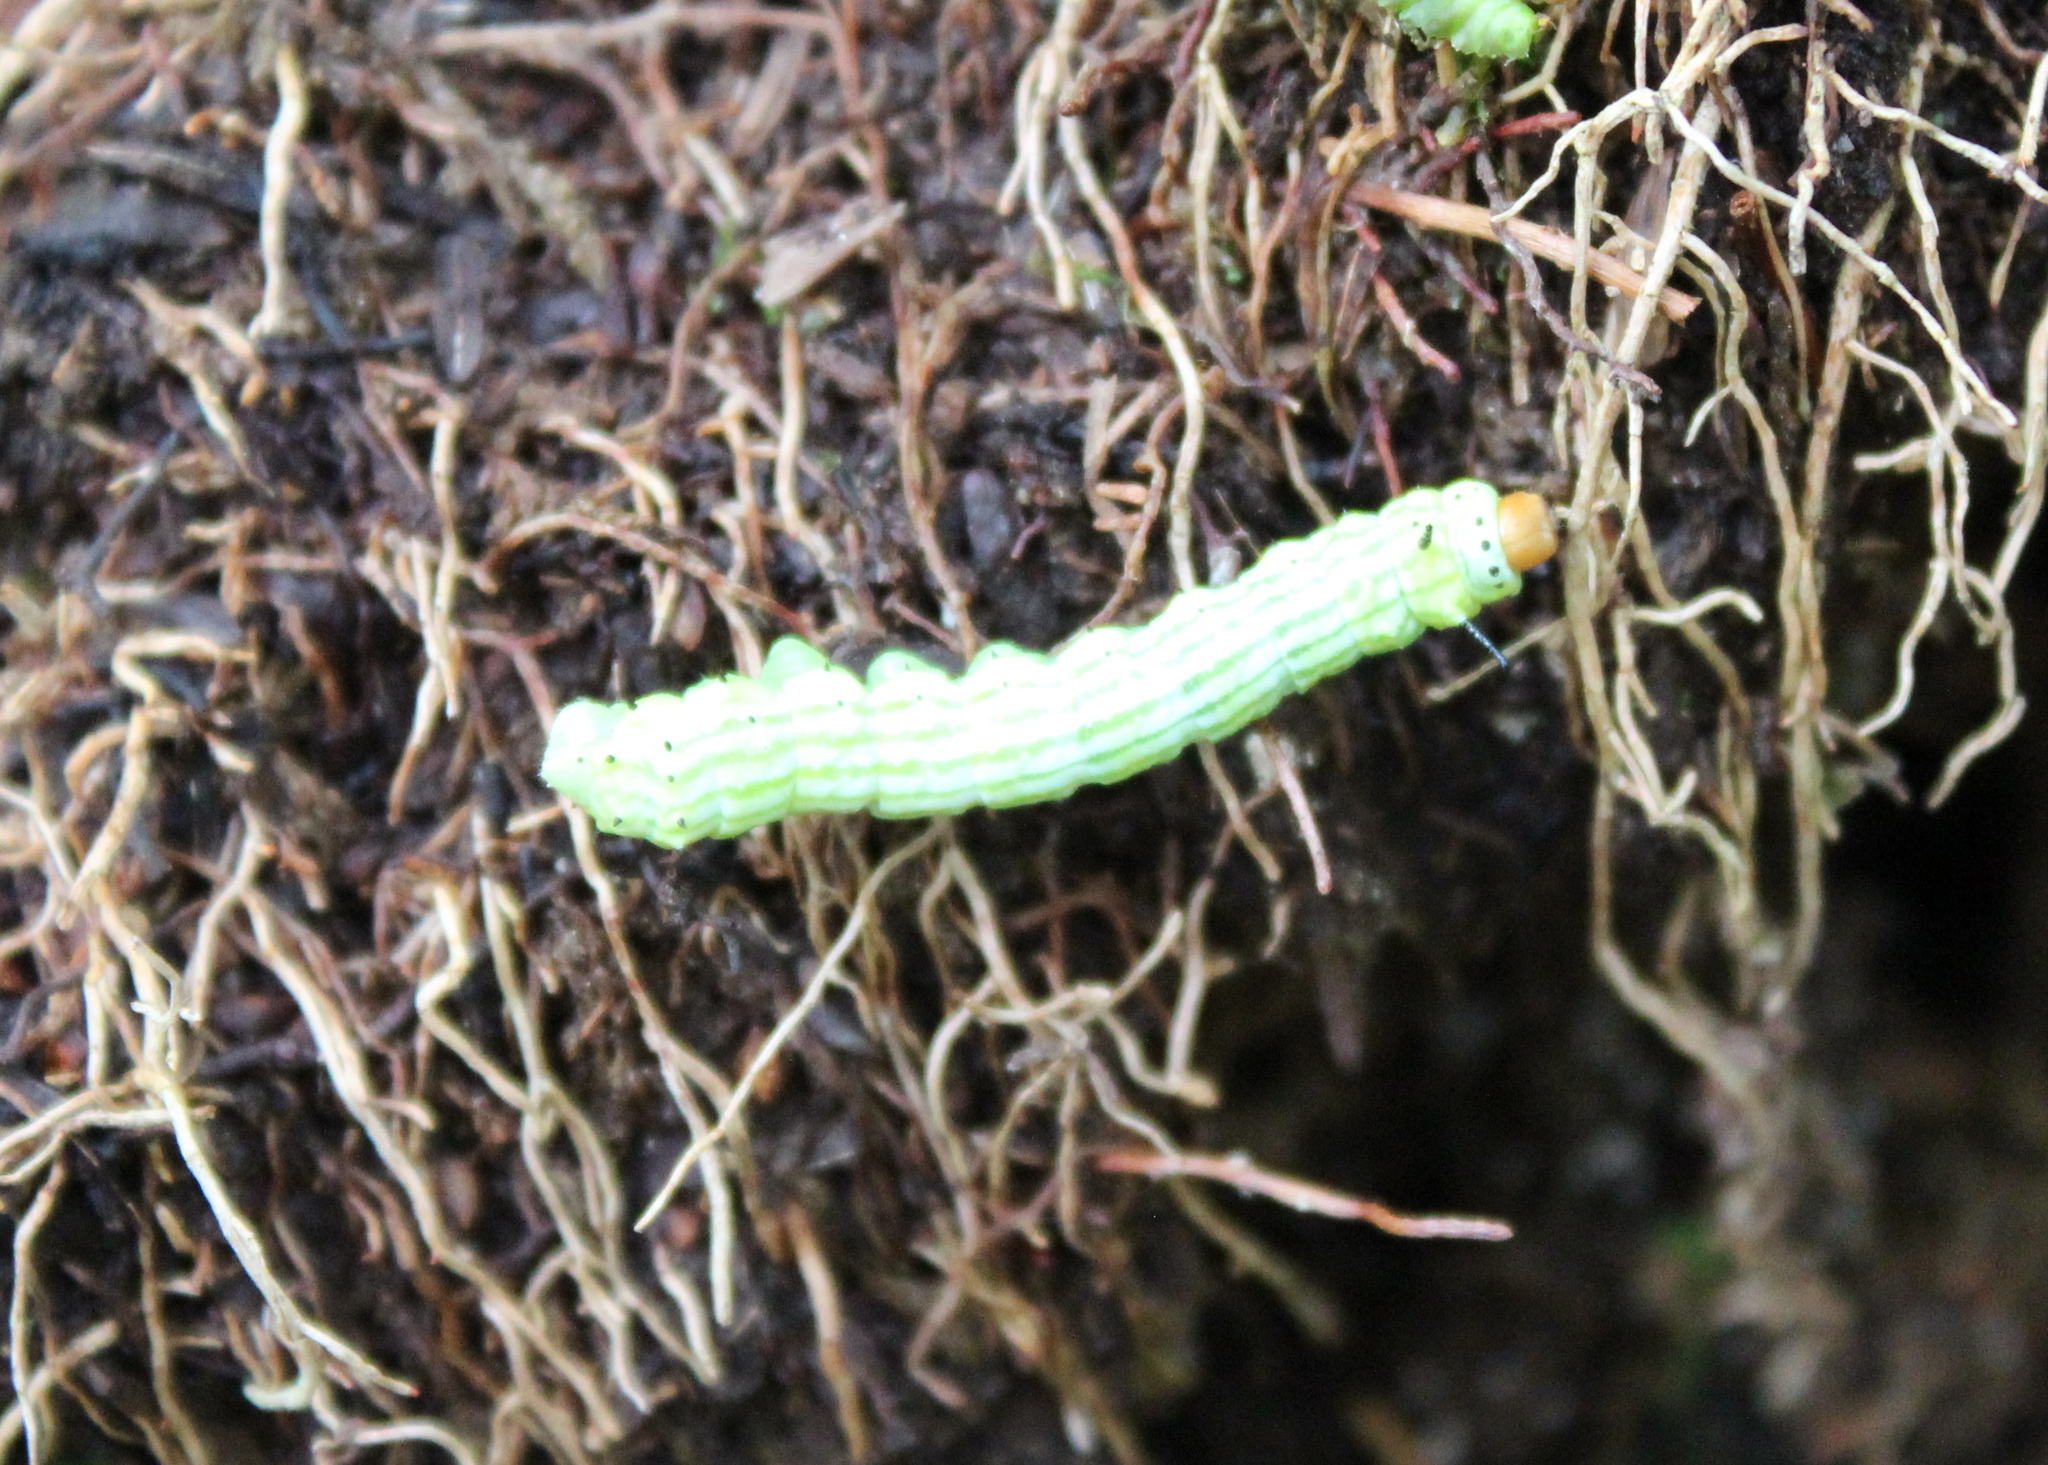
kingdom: Animalia
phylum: Arthropoda
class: Insecta
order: Lepidoptera
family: Saturniidae
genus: Dryocampa
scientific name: Dryocampa rubicunda
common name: Rosy maple moth
